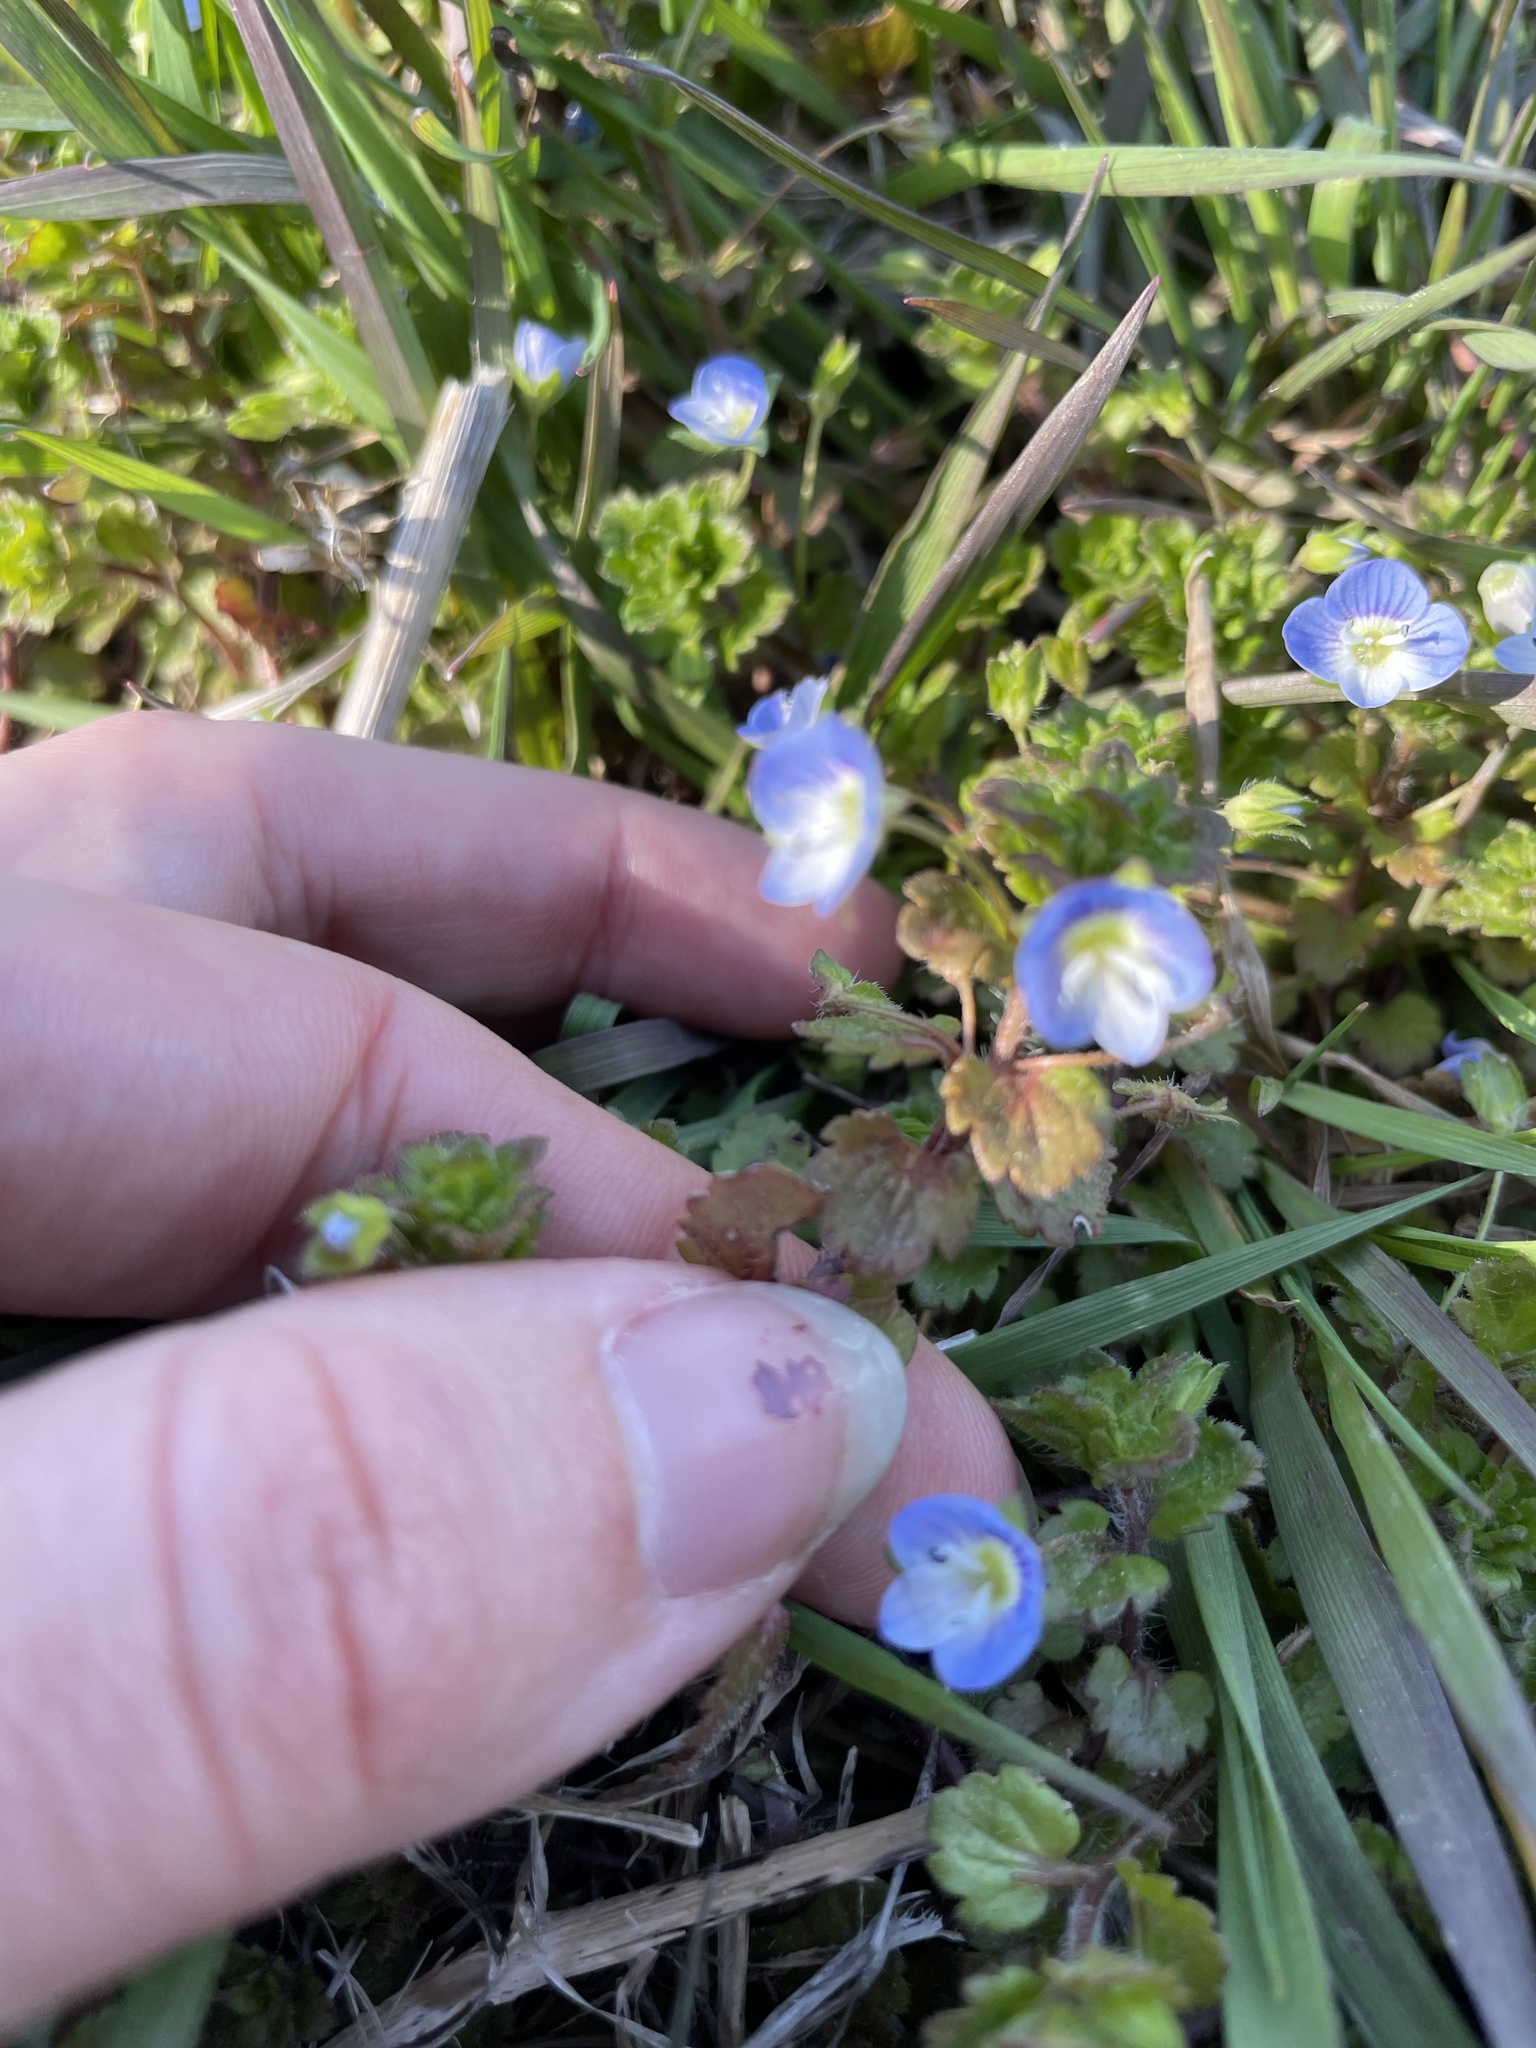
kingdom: Plantae
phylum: Tracheophyta
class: Magnoliopsida
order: Lamiales
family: Plantaginaceae
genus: Veronica
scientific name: Veronica persica
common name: Common field-speedwell
